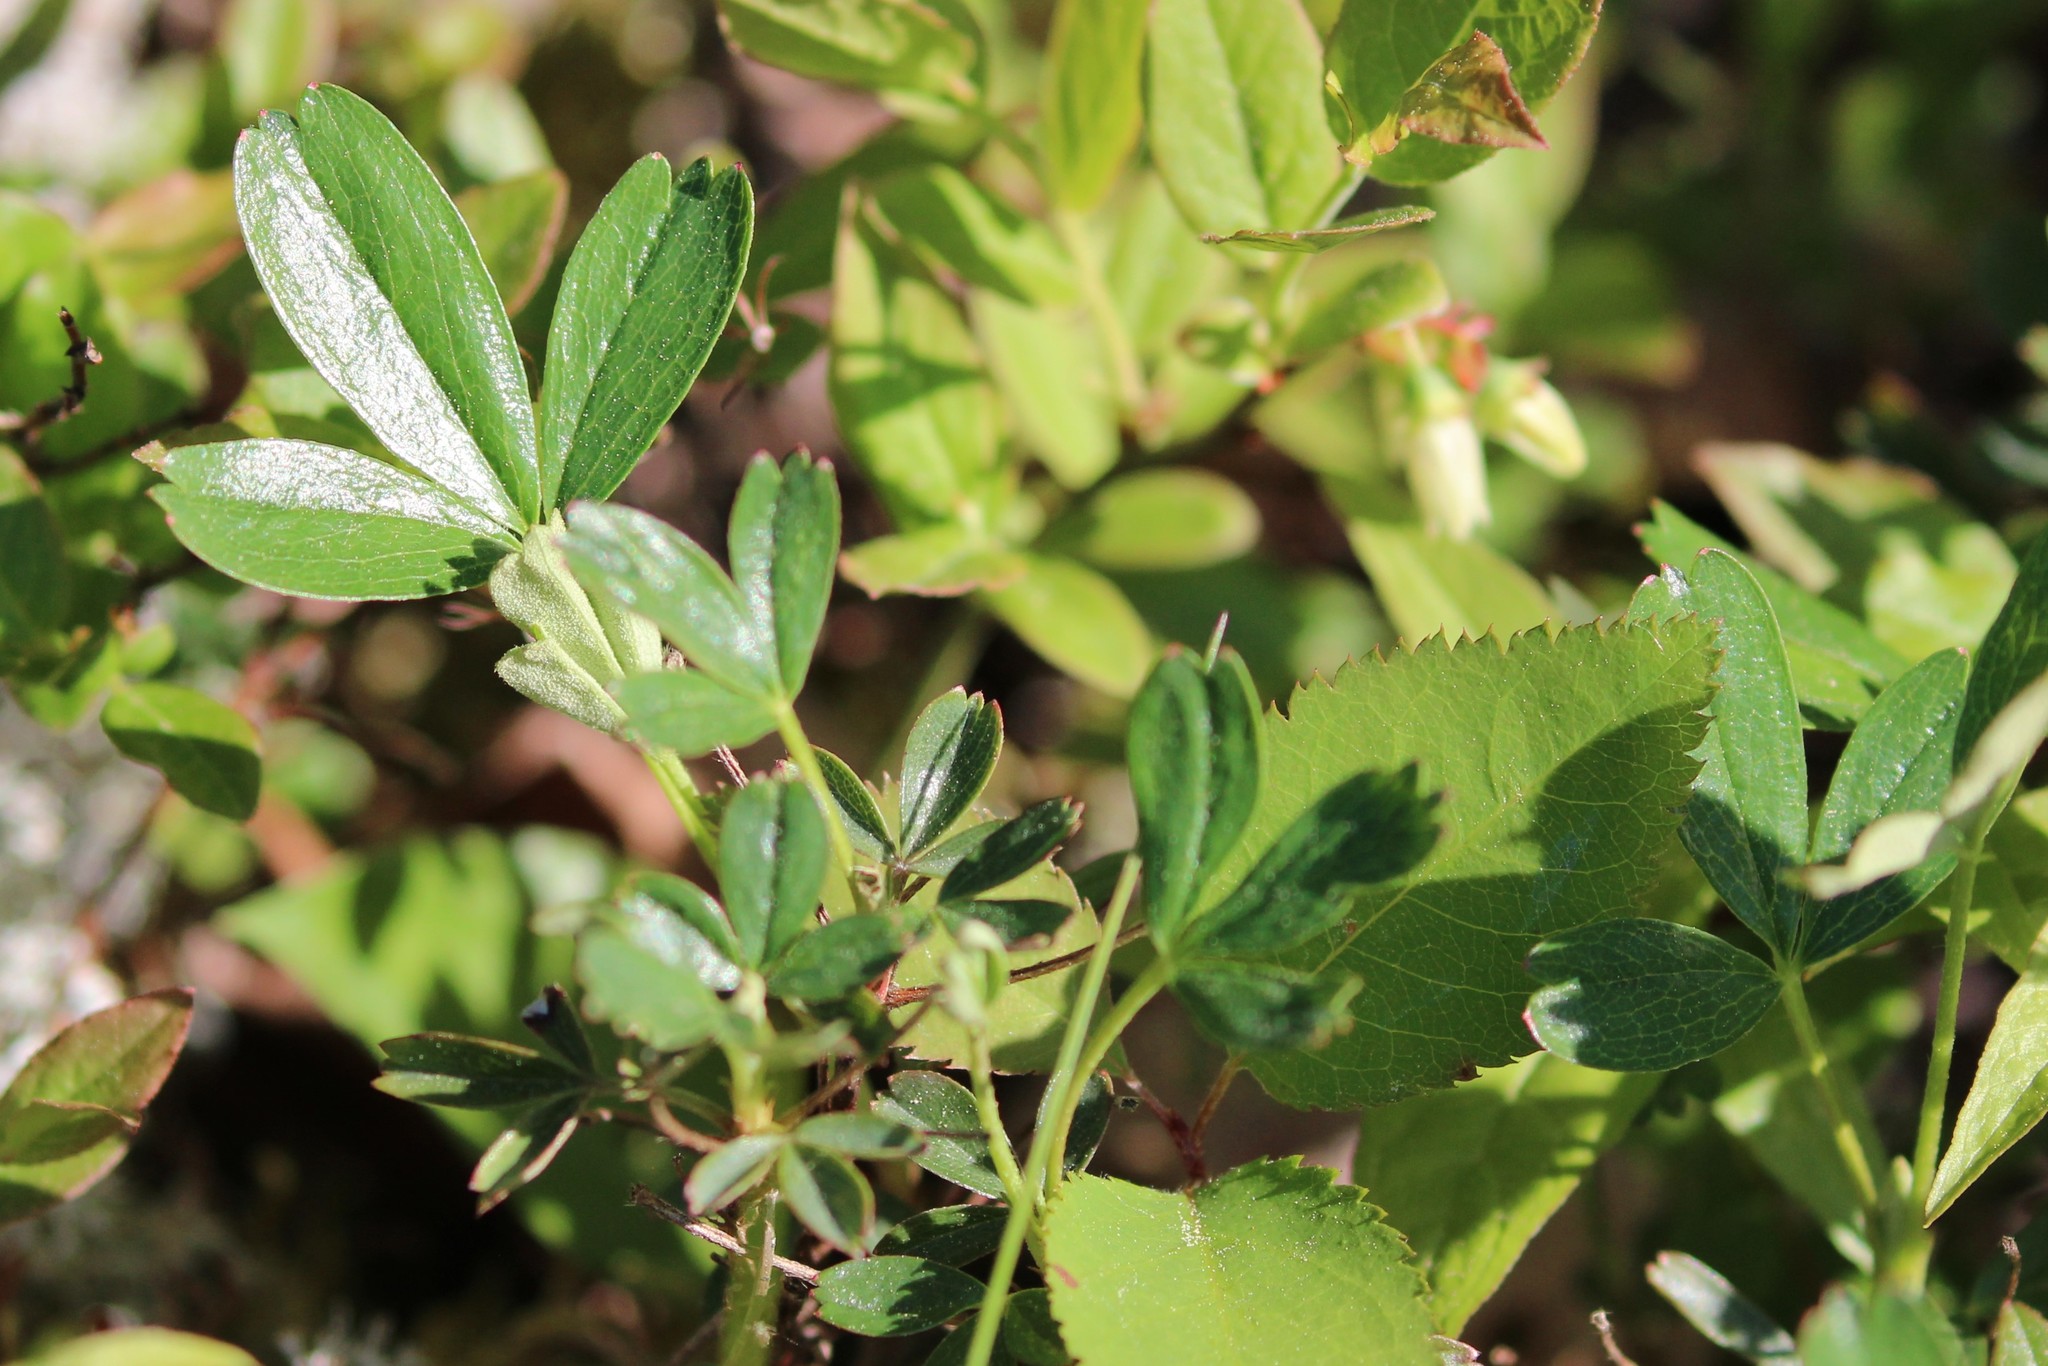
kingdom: Plantae
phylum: Tracheophyta
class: Magnoliopsida
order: Rosales
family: Rosaceae
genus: Sibbaldia
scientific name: Sibbaldia tridentata
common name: Three-toothed cinquefoil
